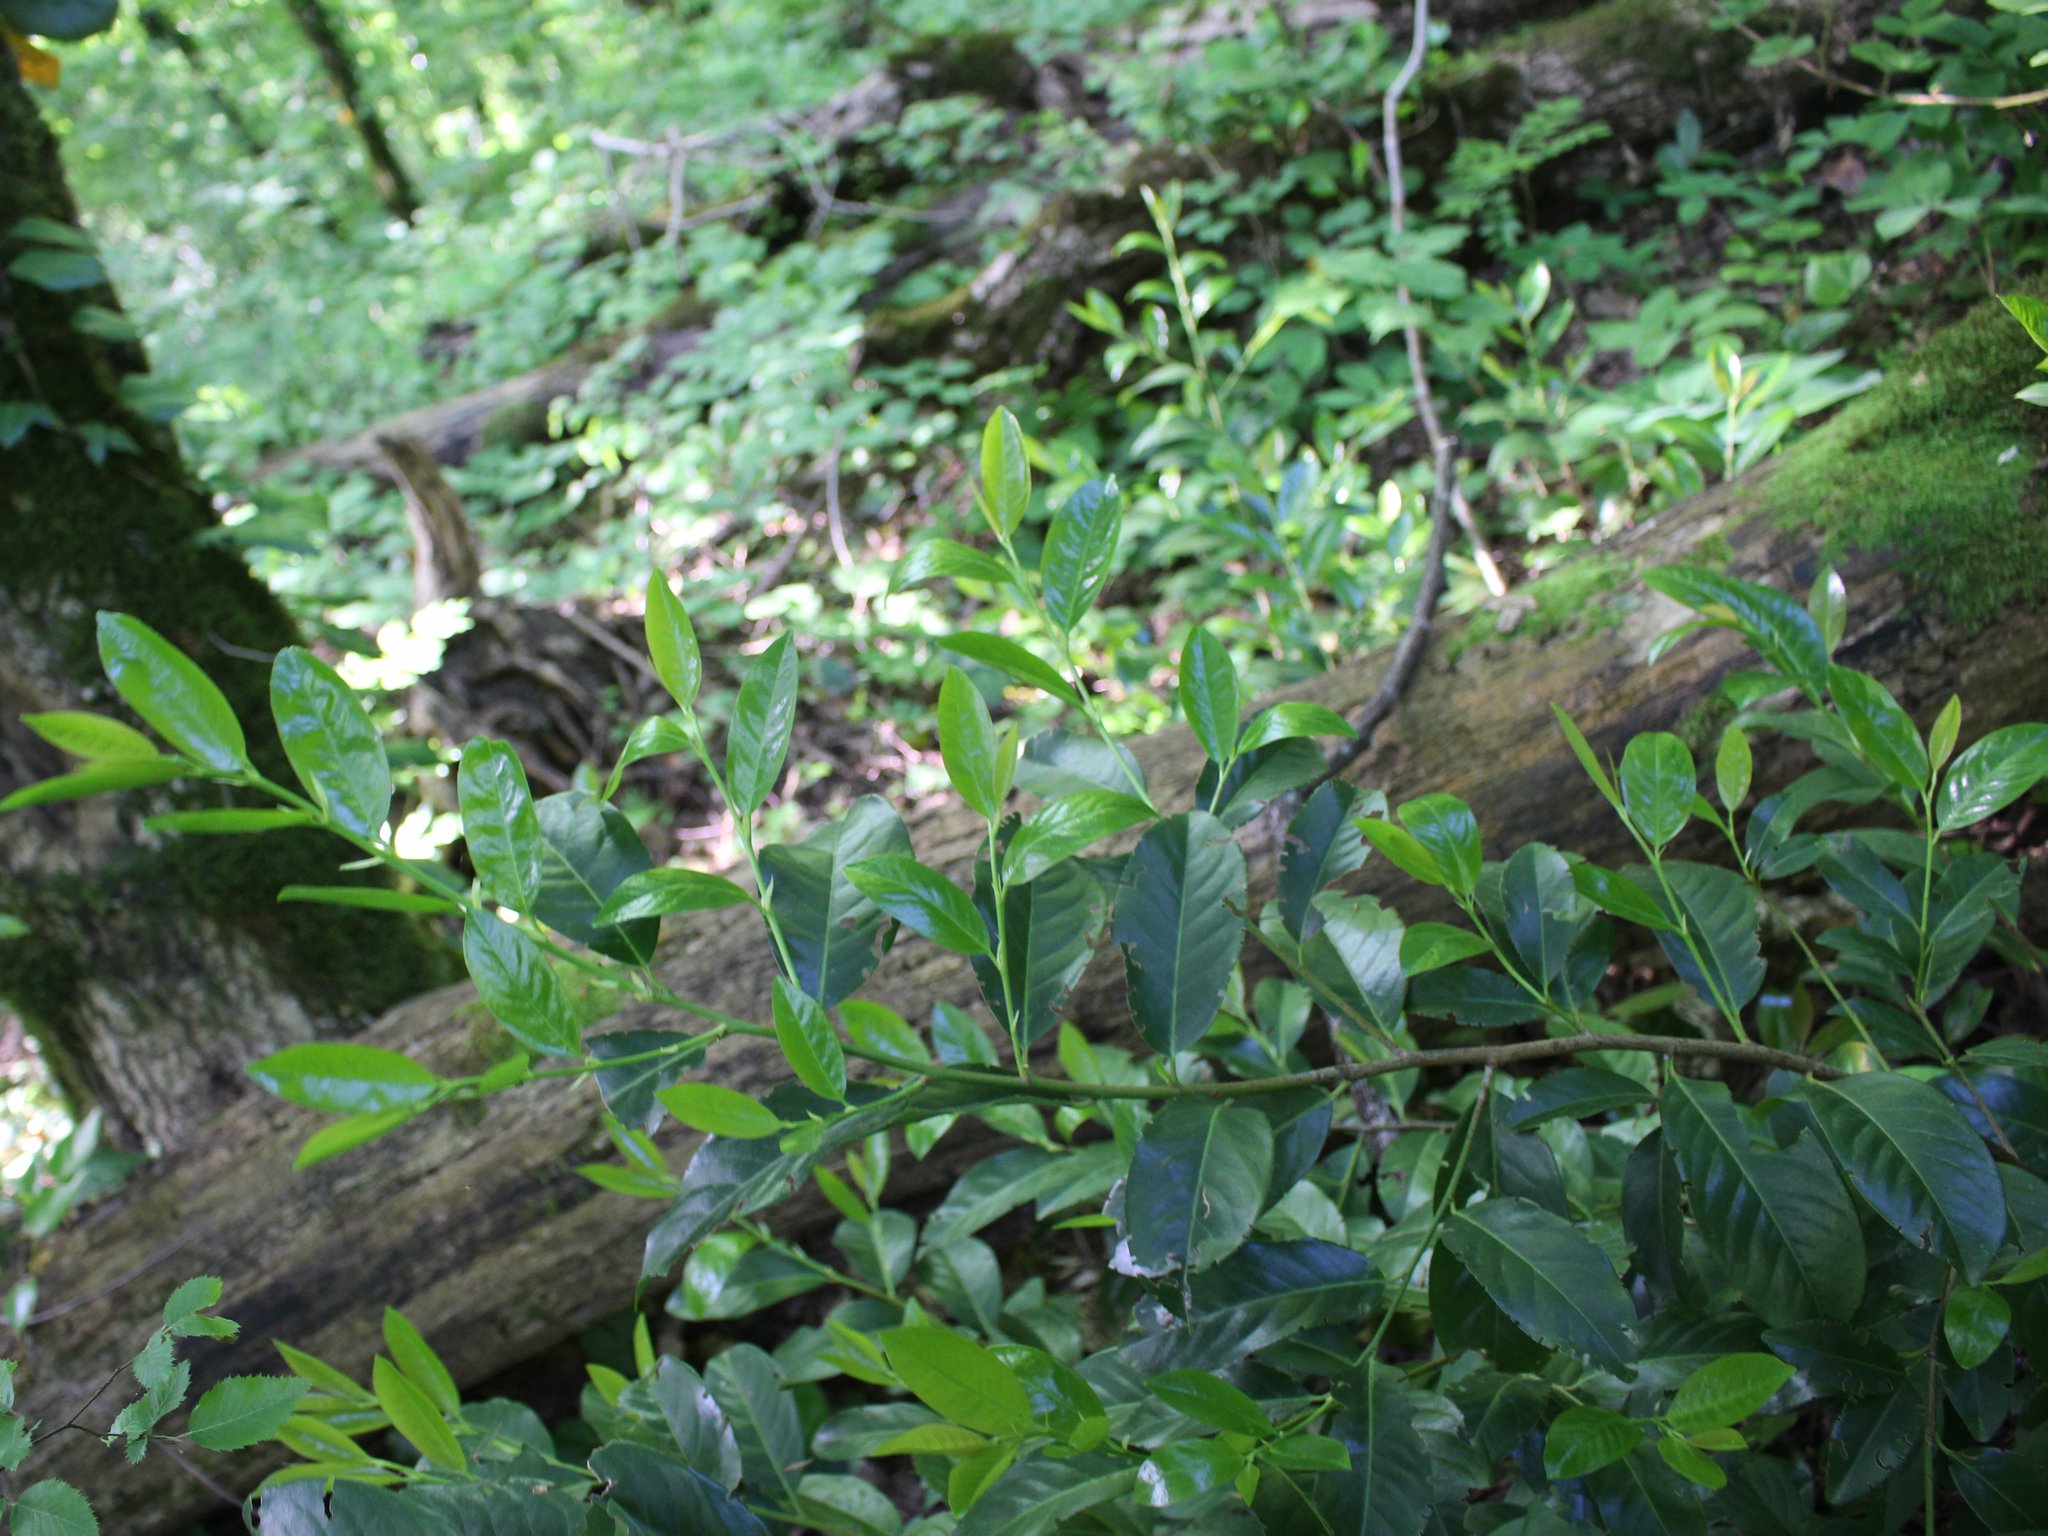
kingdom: Plantae
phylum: Tracheophyta
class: Magnoliopsida
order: Rosales
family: Rosaceae
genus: Prunus
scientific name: Prunus laurocerasus
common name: Cherry laurel
